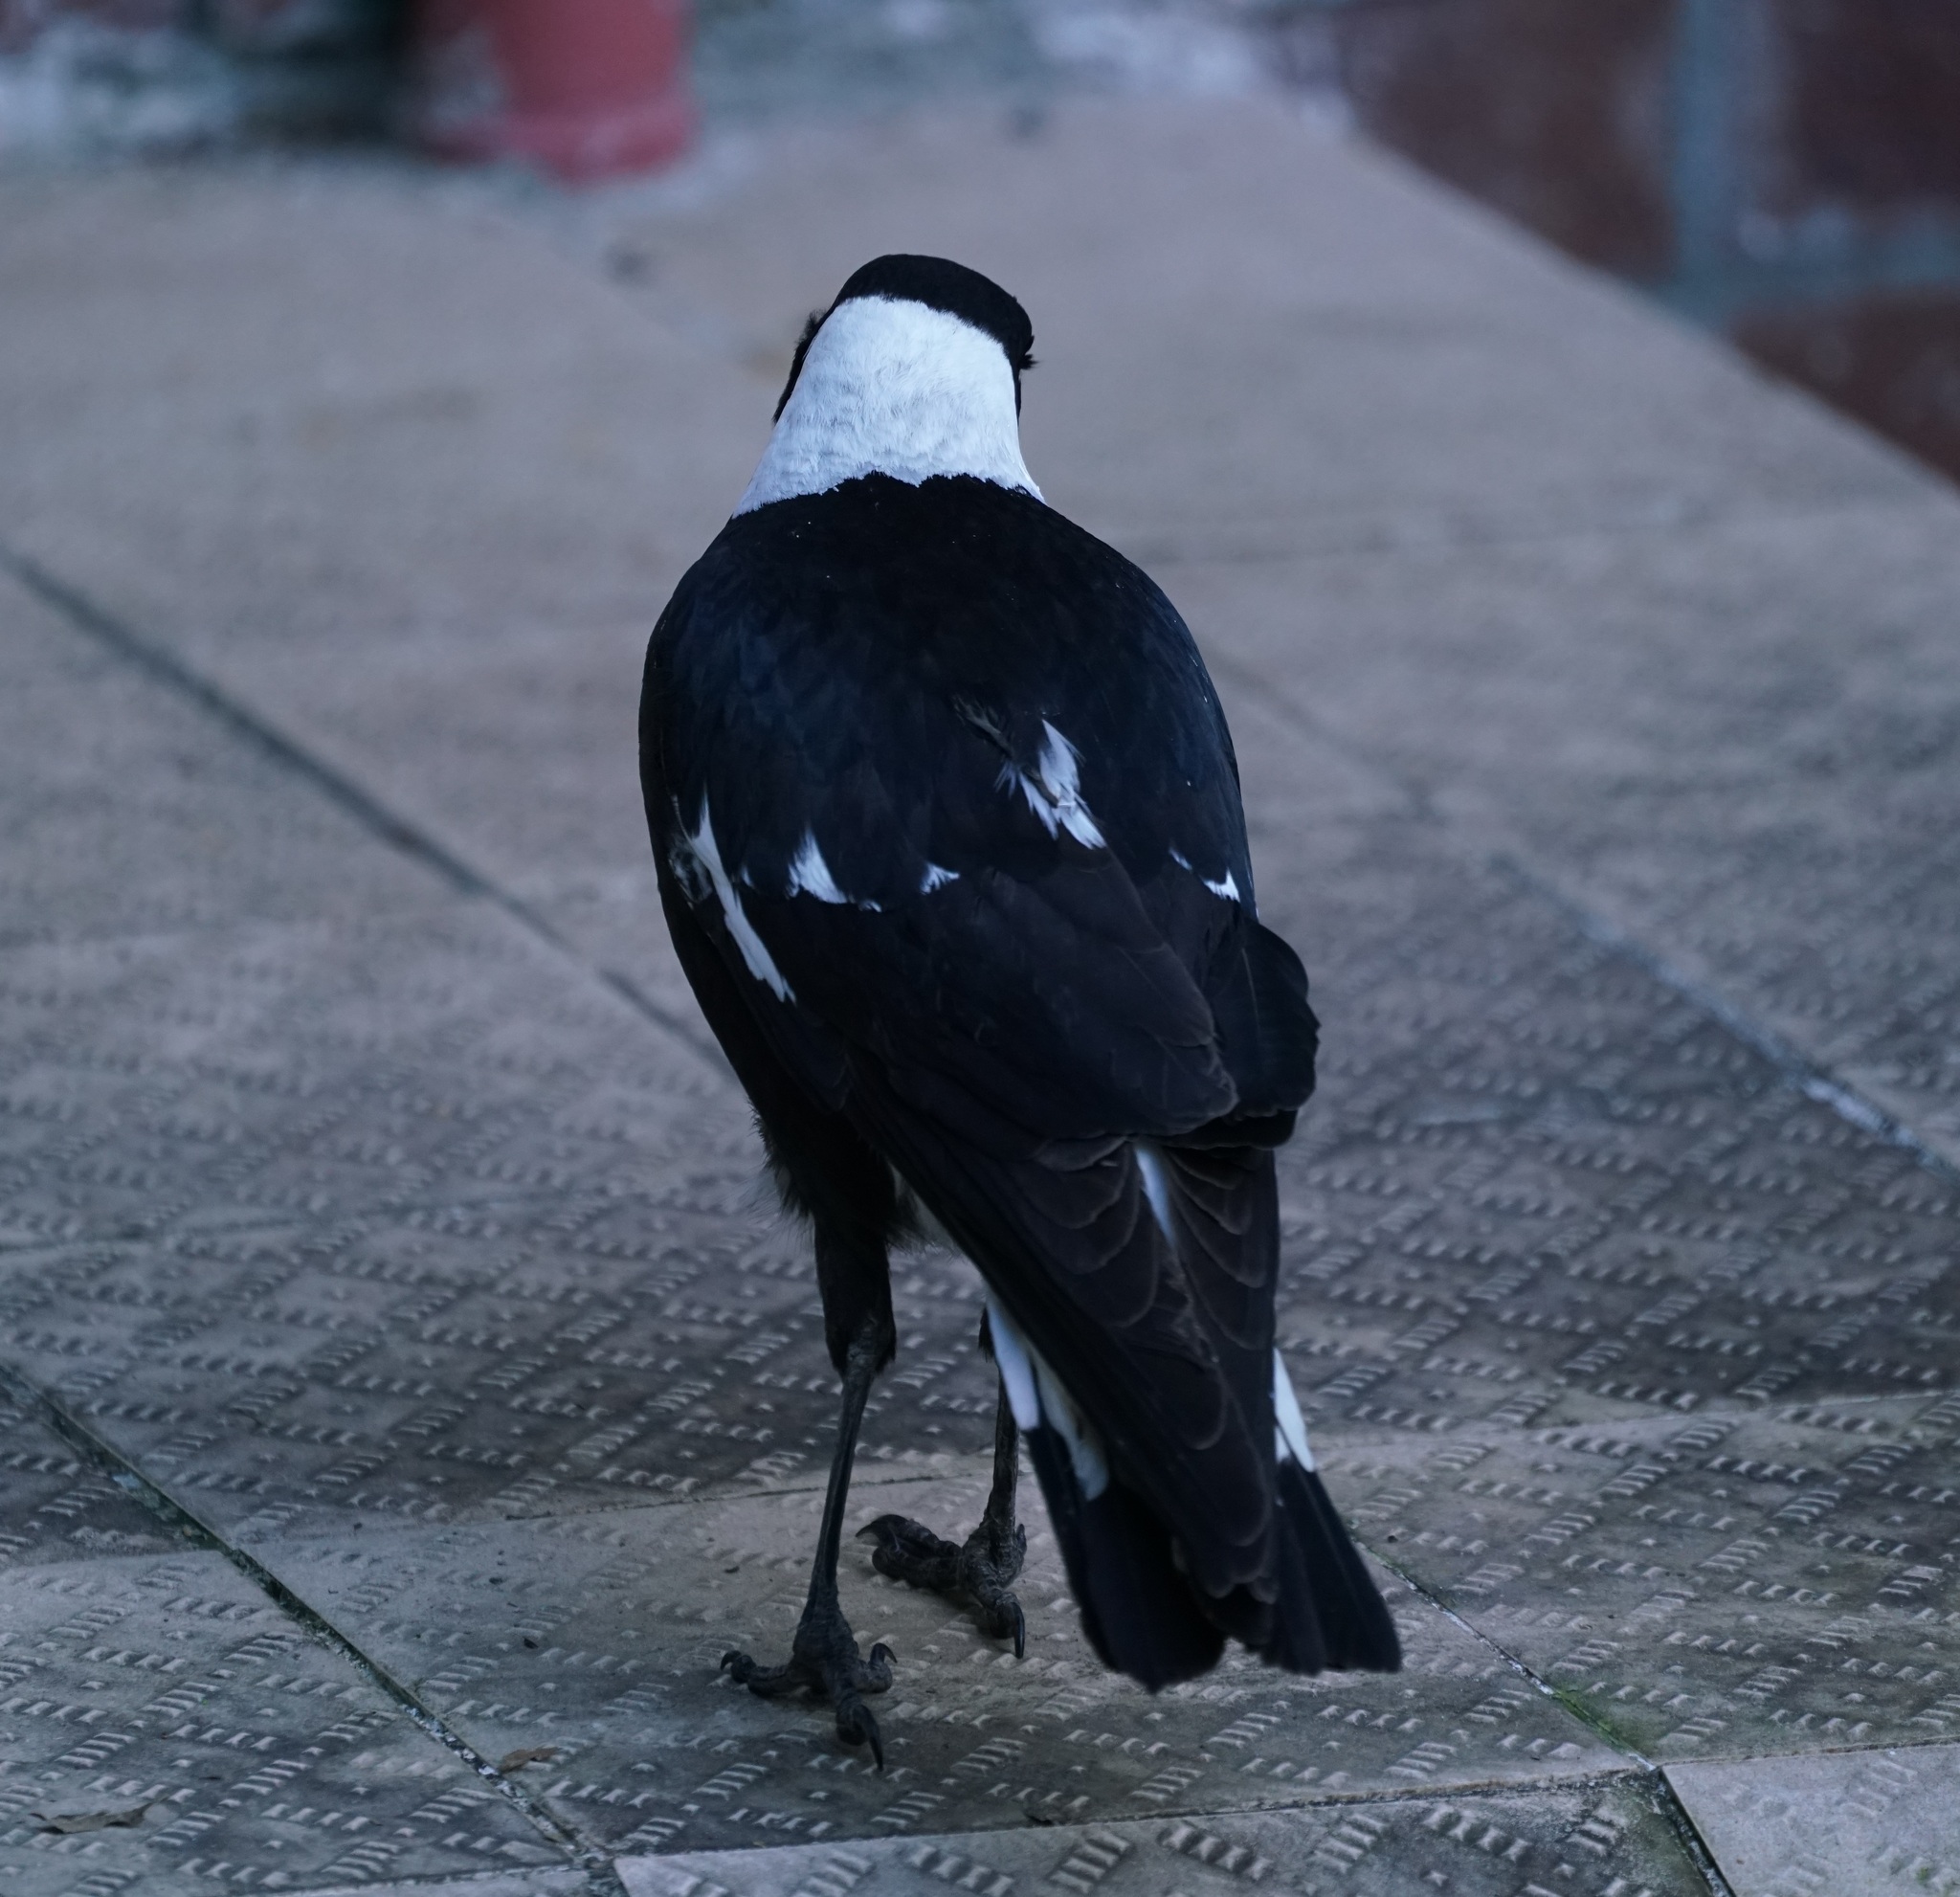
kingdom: Animalia
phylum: Chordata
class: Aves
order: Passeriformes
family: Cracticidae
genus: Gymnorhina
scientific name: Gymnorhina tibicen
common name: Australian magpie
